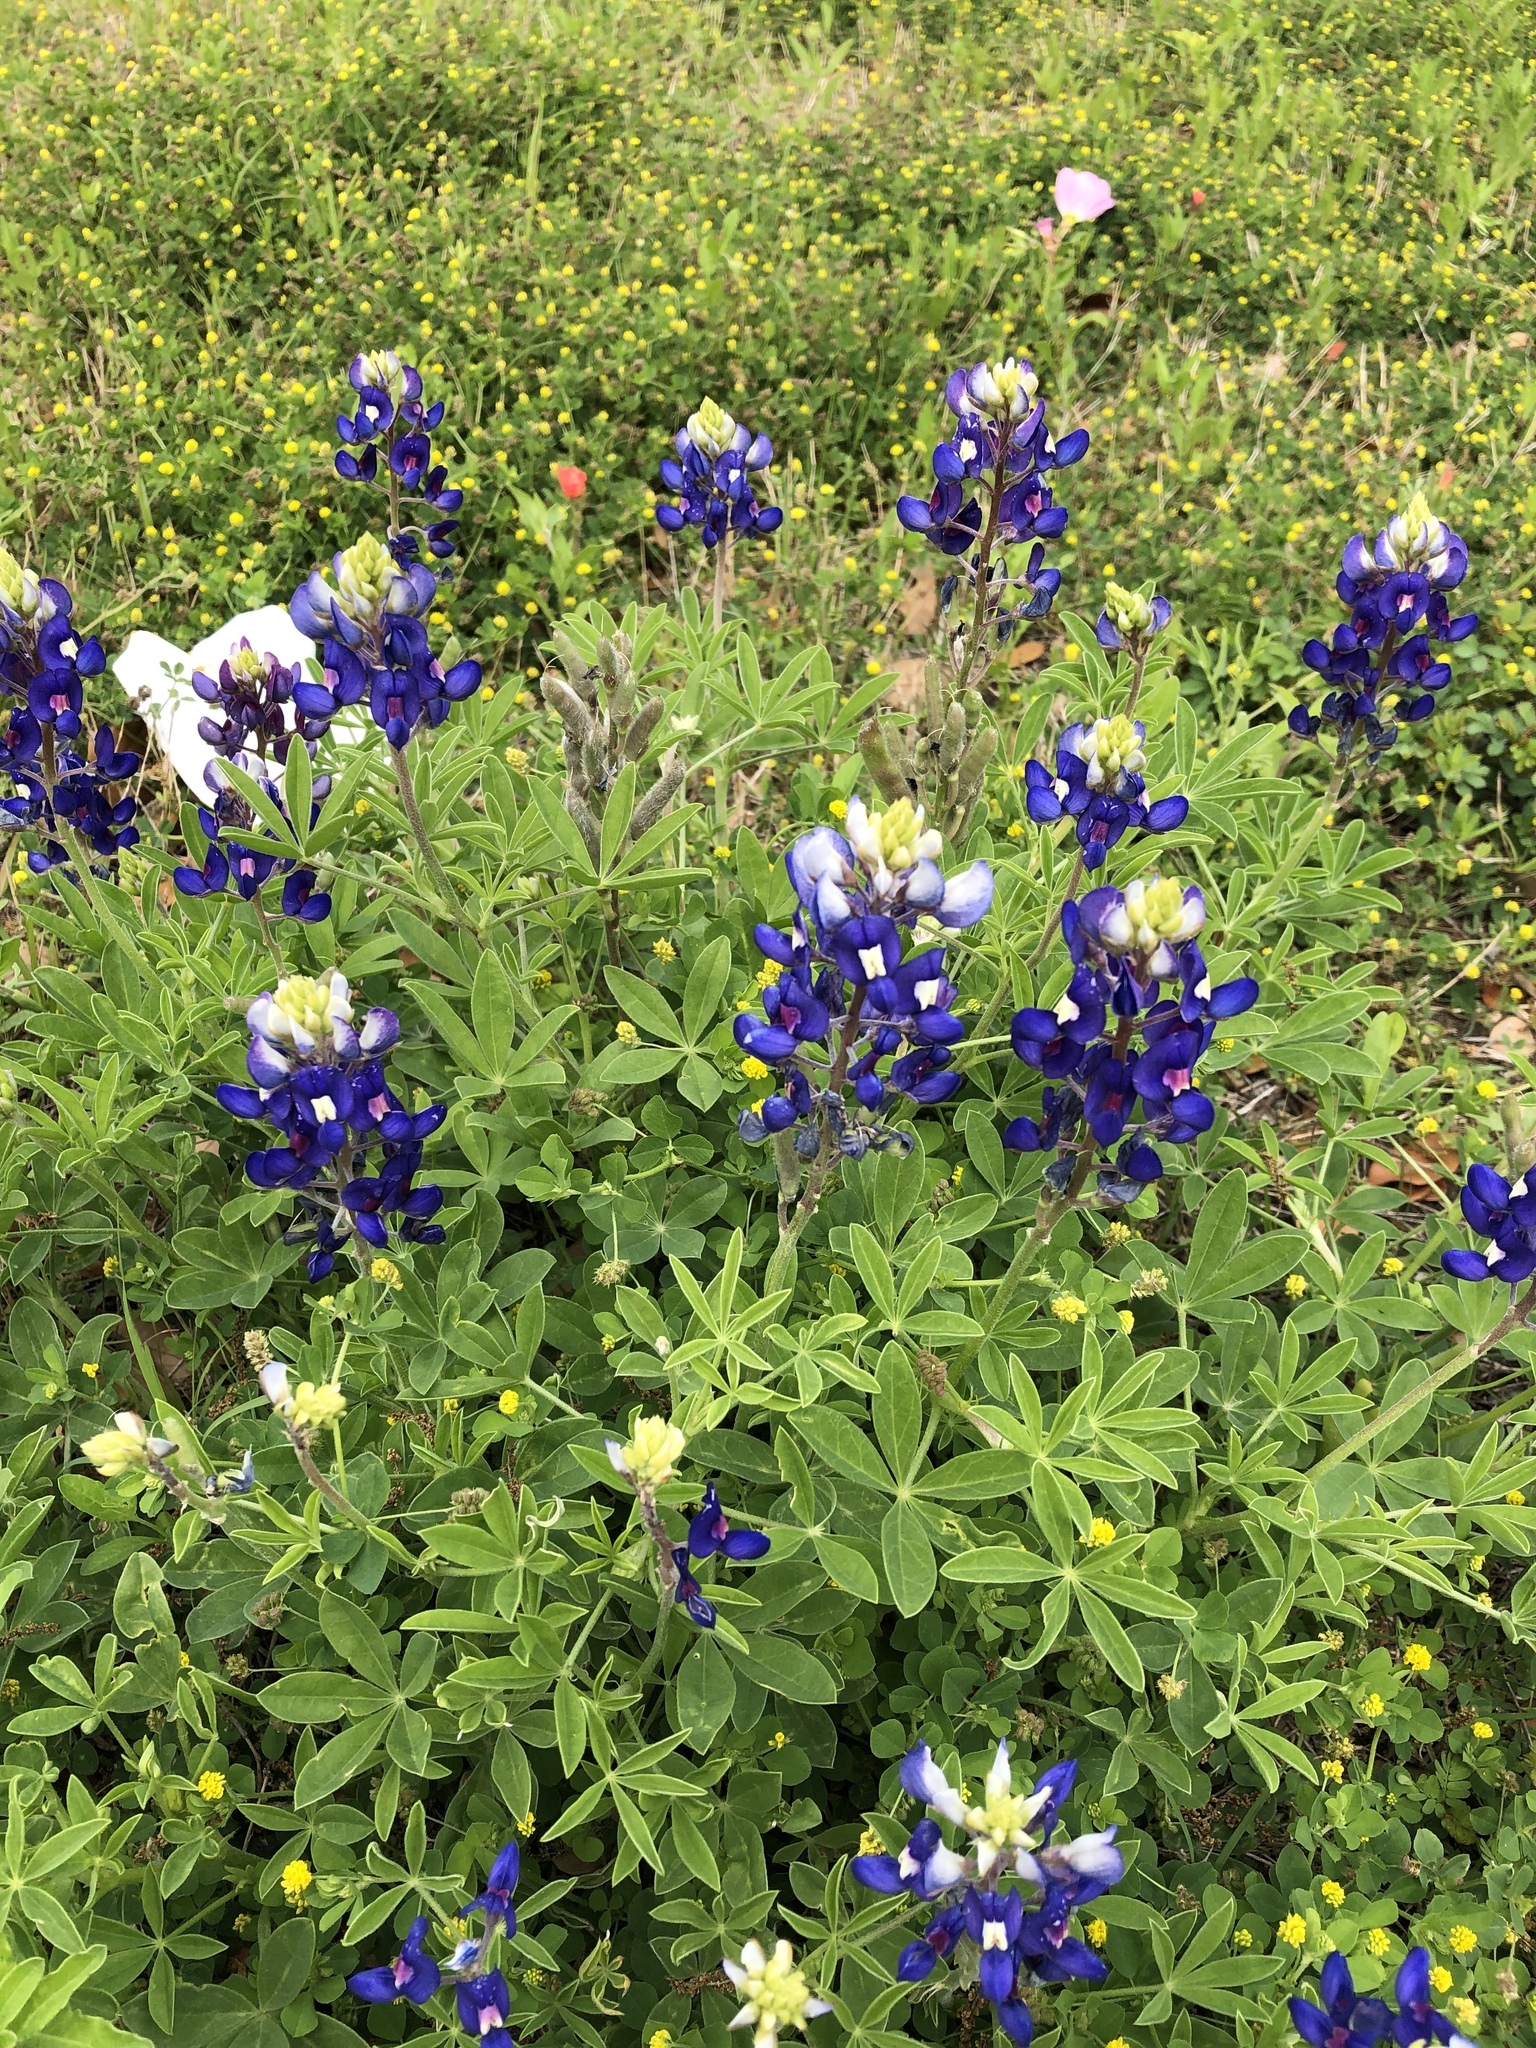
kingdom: Plantae
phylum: Tracheophyta
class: Magnoliopsida
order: Fabales
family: Fabaceae
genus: Lupinus
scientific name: Lupinus texensis
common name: Texas bluebonnet
